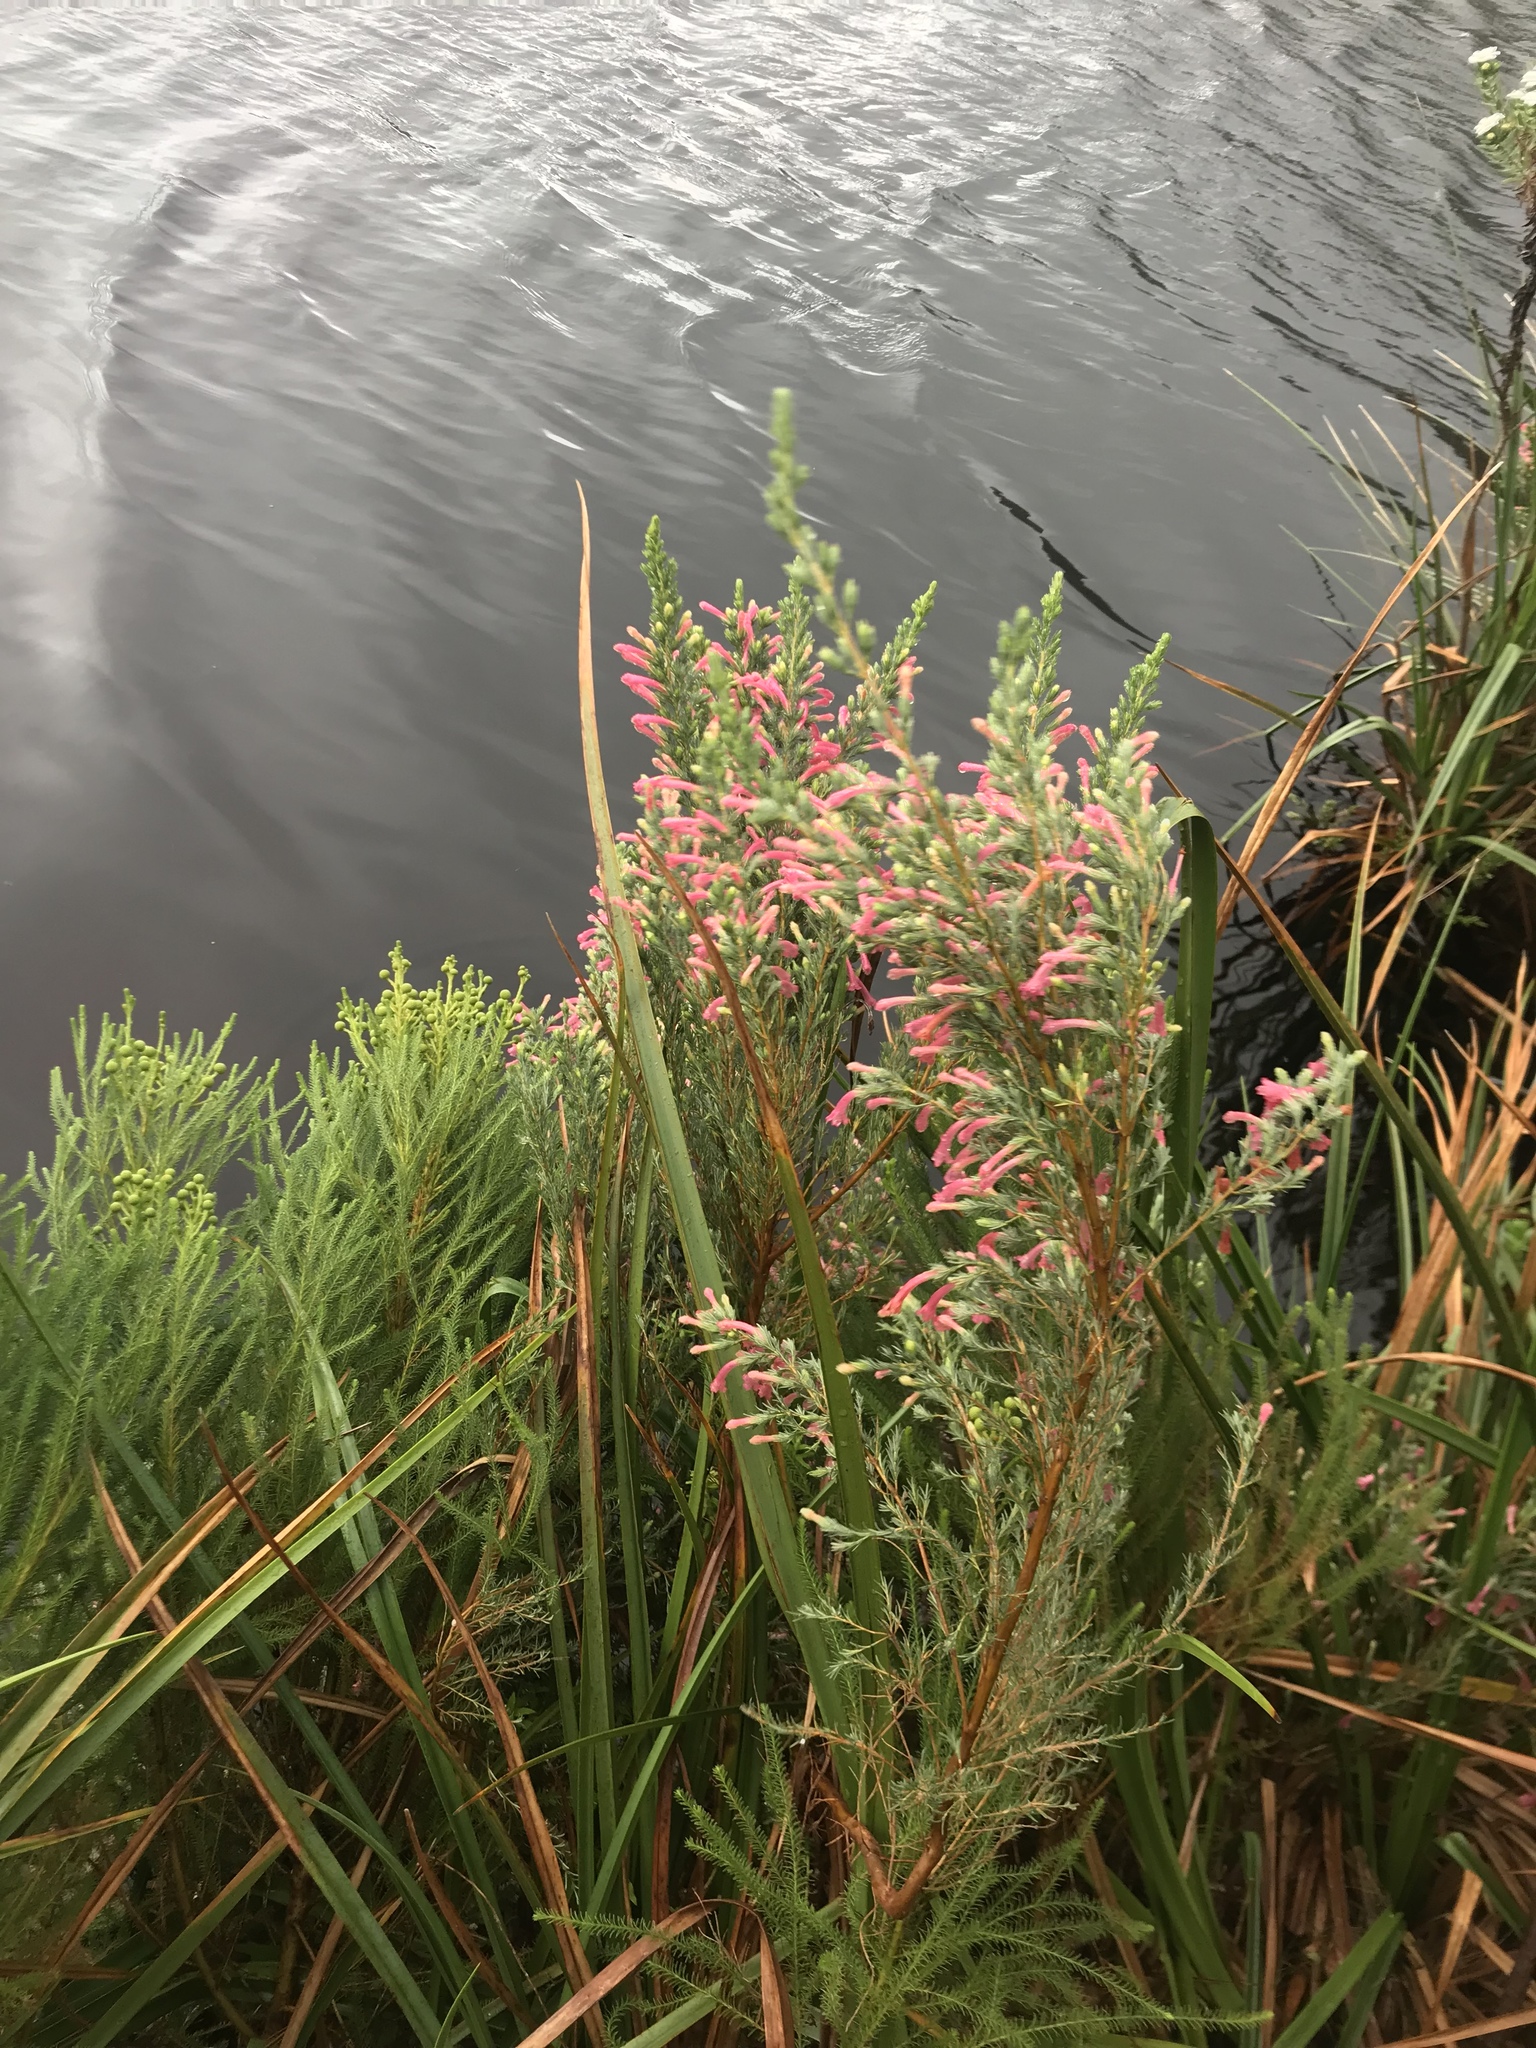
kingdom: Plantae
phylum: Tracheophyta
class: Magnoliopsida
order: Ericales
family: Ericaceae
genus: Erica
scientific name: Erica curviflora
